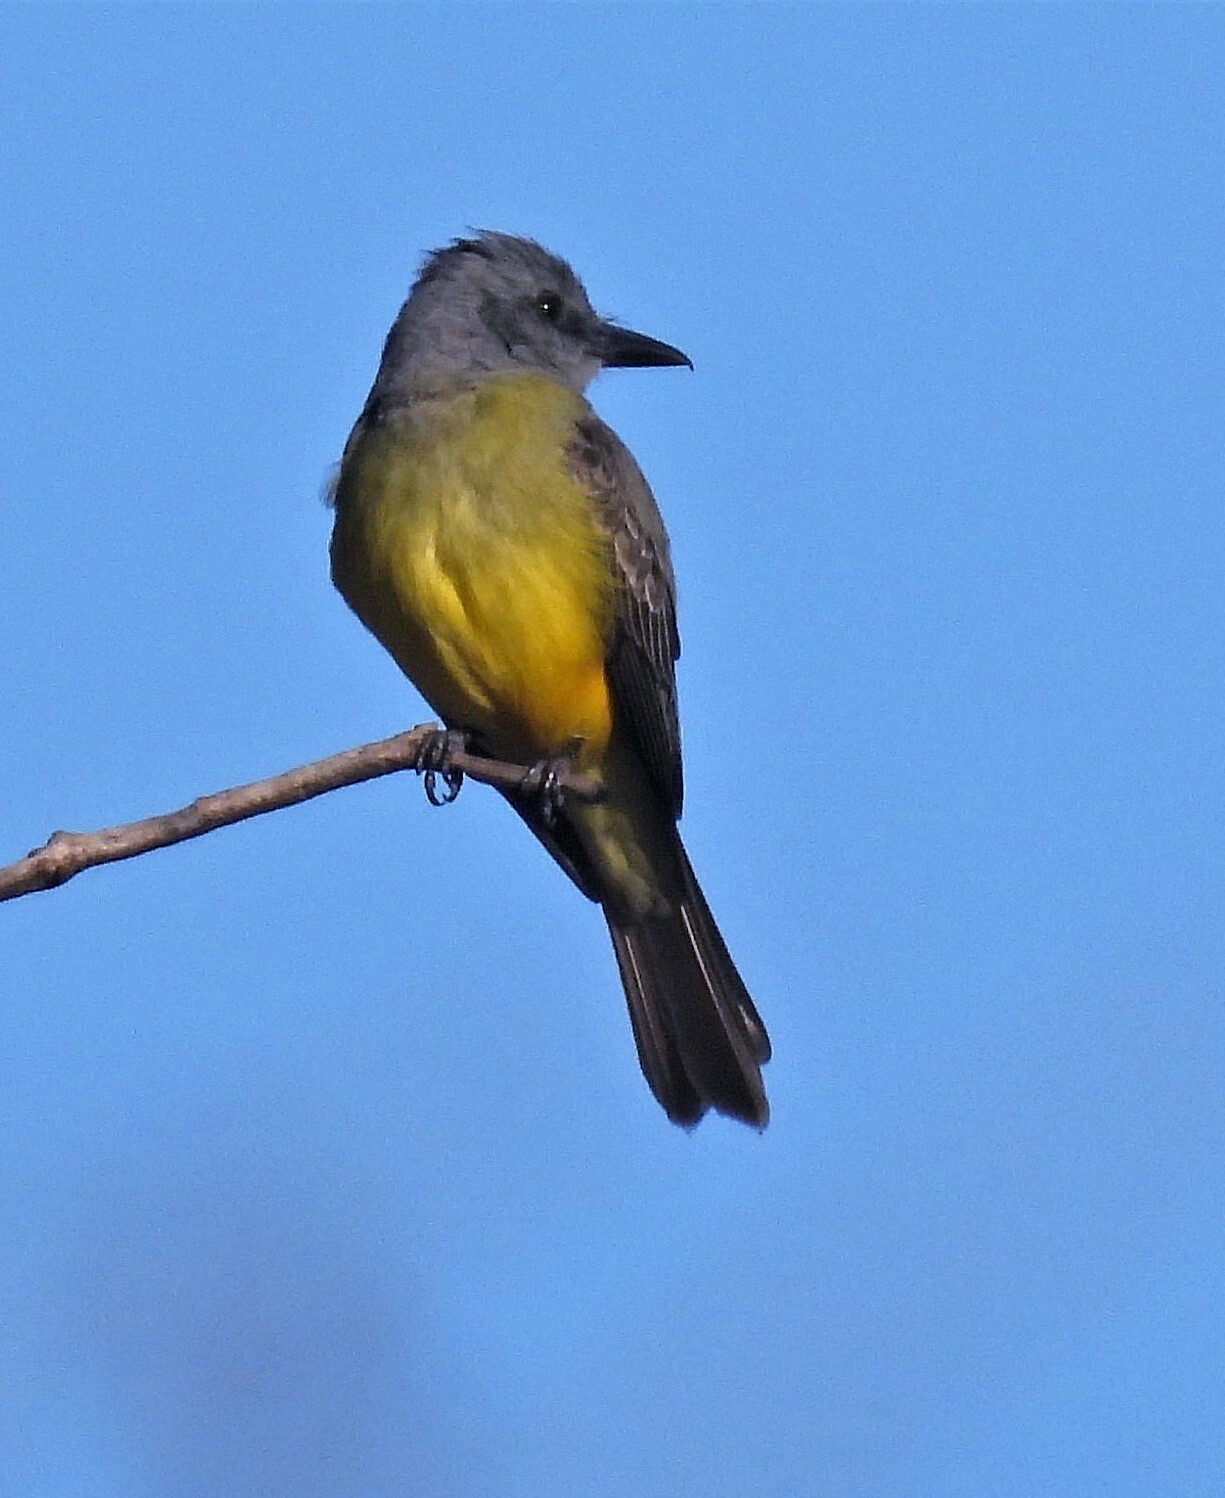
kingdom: Animalia
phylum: Chordata
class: Aves
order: Passeriformes
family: Tyrannidae
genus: Tyrannus
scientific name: Tyrannus melancholicus
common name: Tropical kingbird
